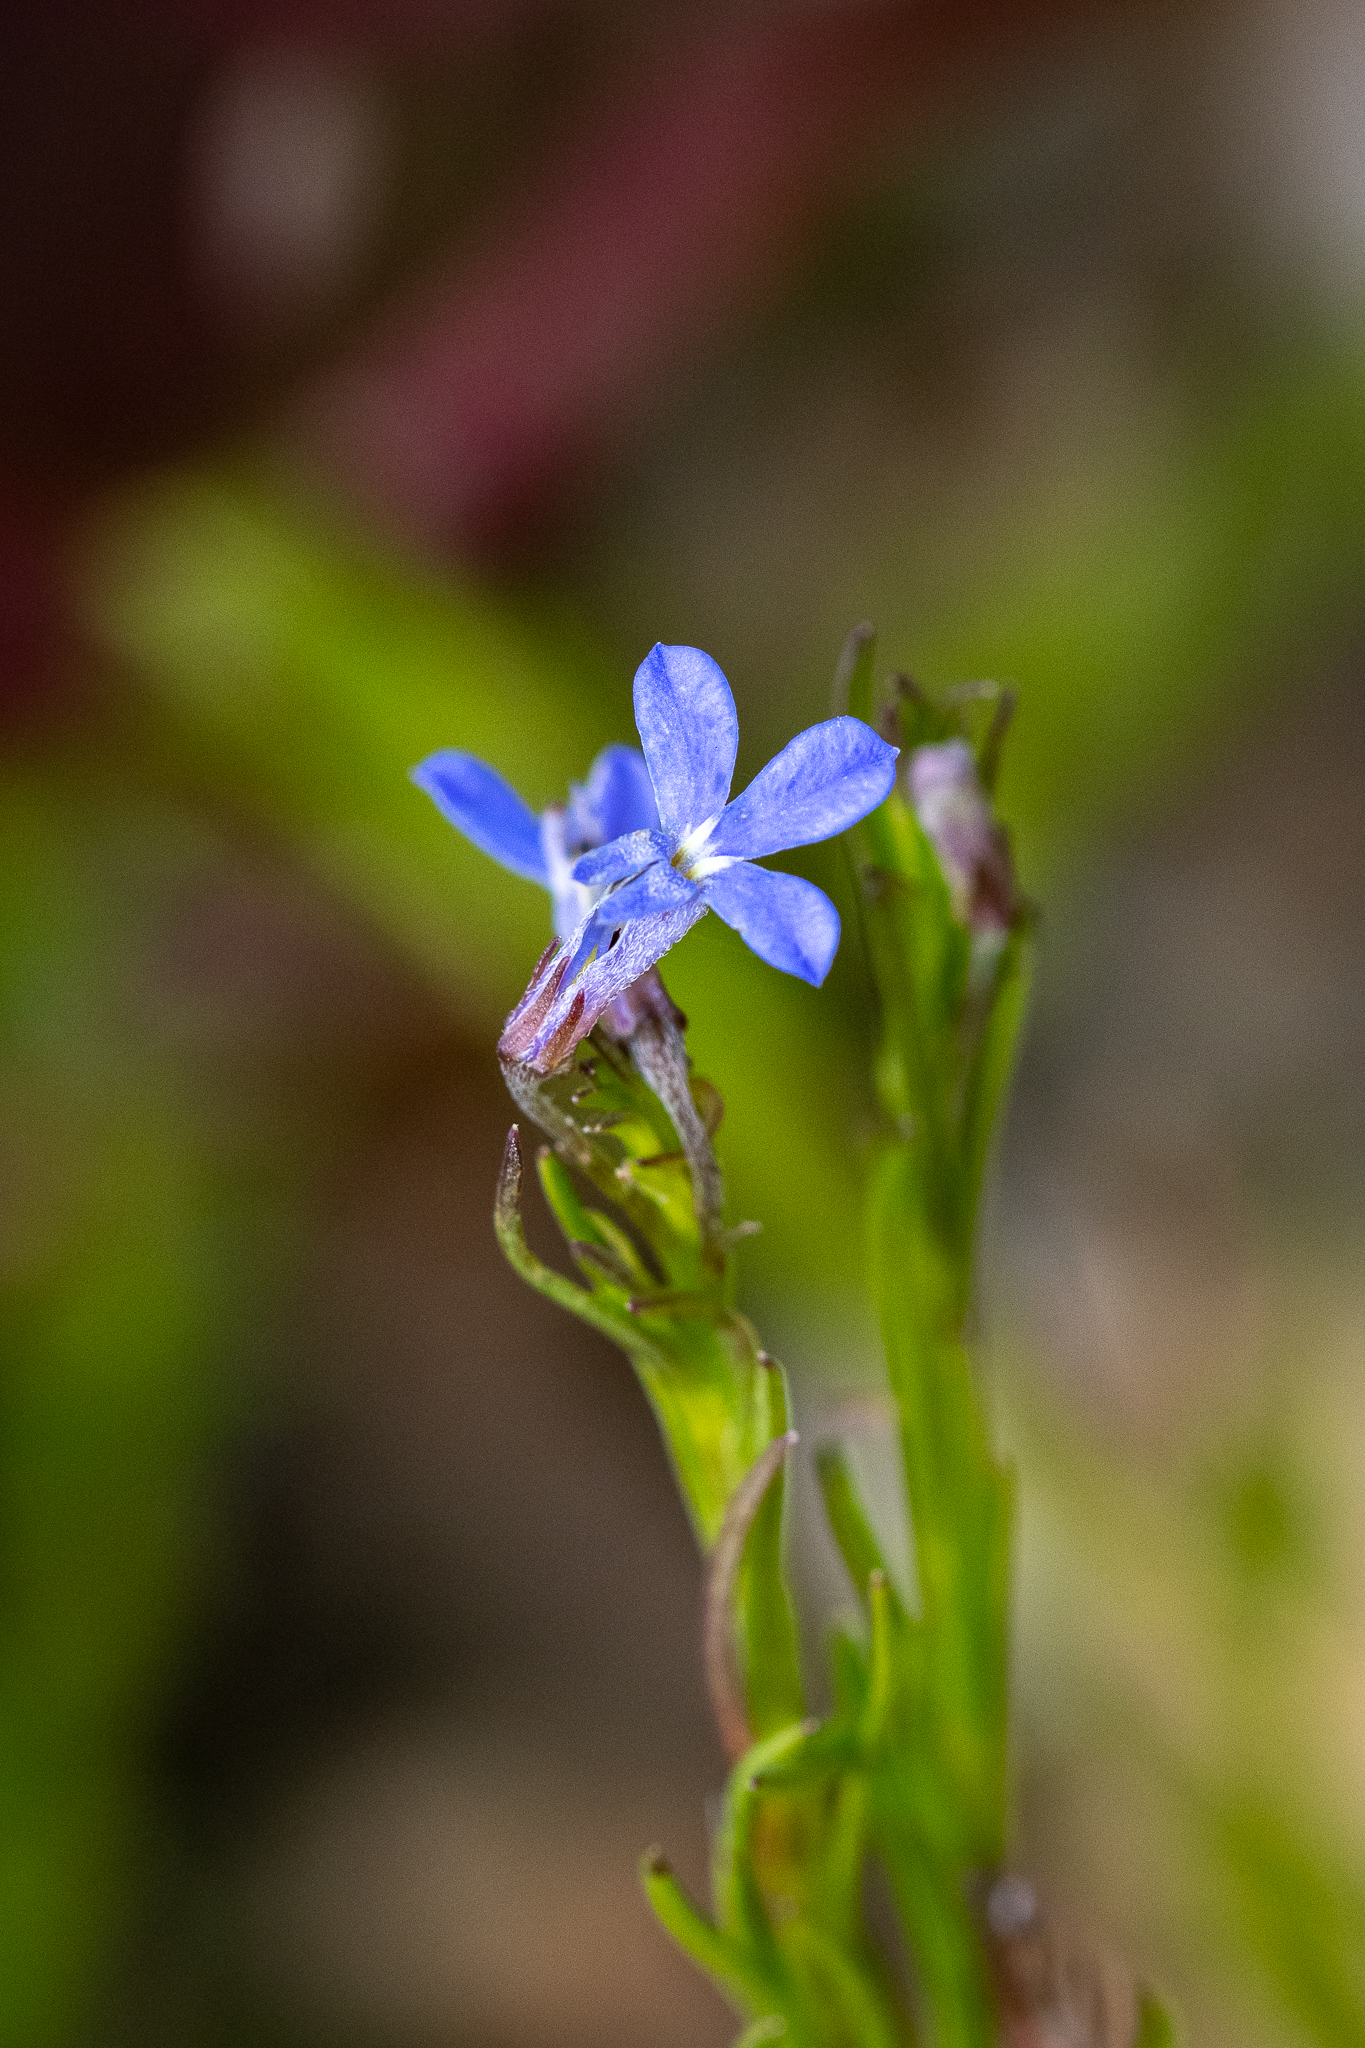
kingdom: Plantae
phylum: Tracheophyta
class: Magnoliopsida
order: Asterales
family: Campanulaceae
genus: Lobelia
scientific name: Lobelia pinifolia
